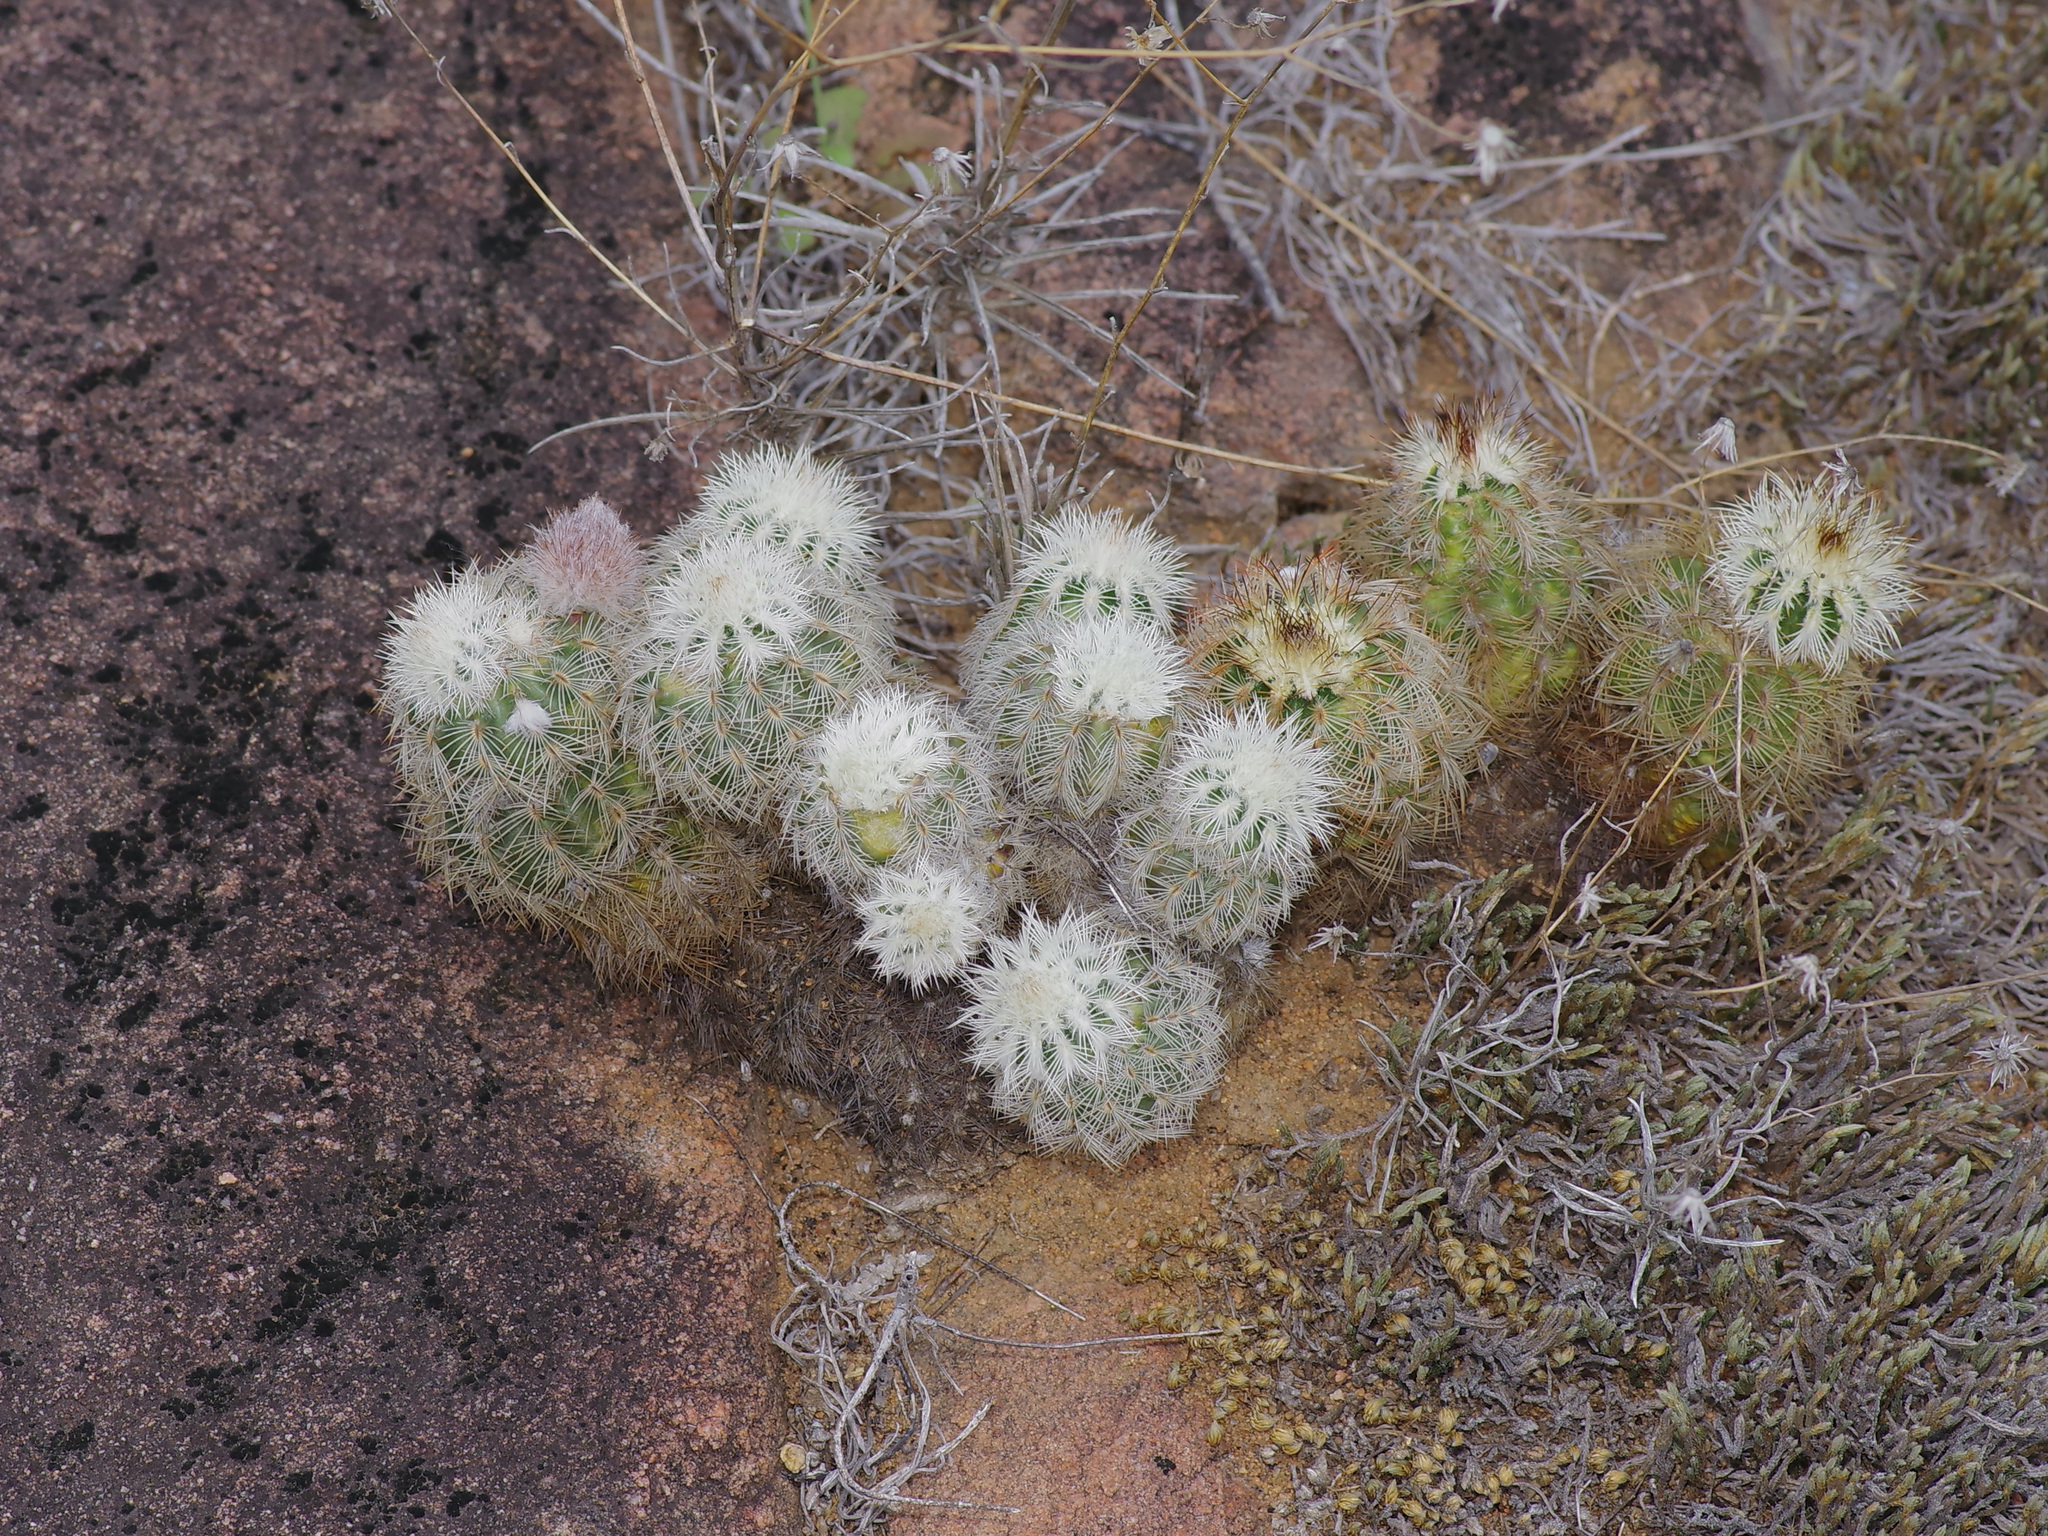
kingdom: Plantae
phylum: Tracheophyta
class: Magnoliopsida
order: Caryophyllales
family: Cactaceae
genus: Echinocereus
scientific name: Echinocereus reichenbachii
